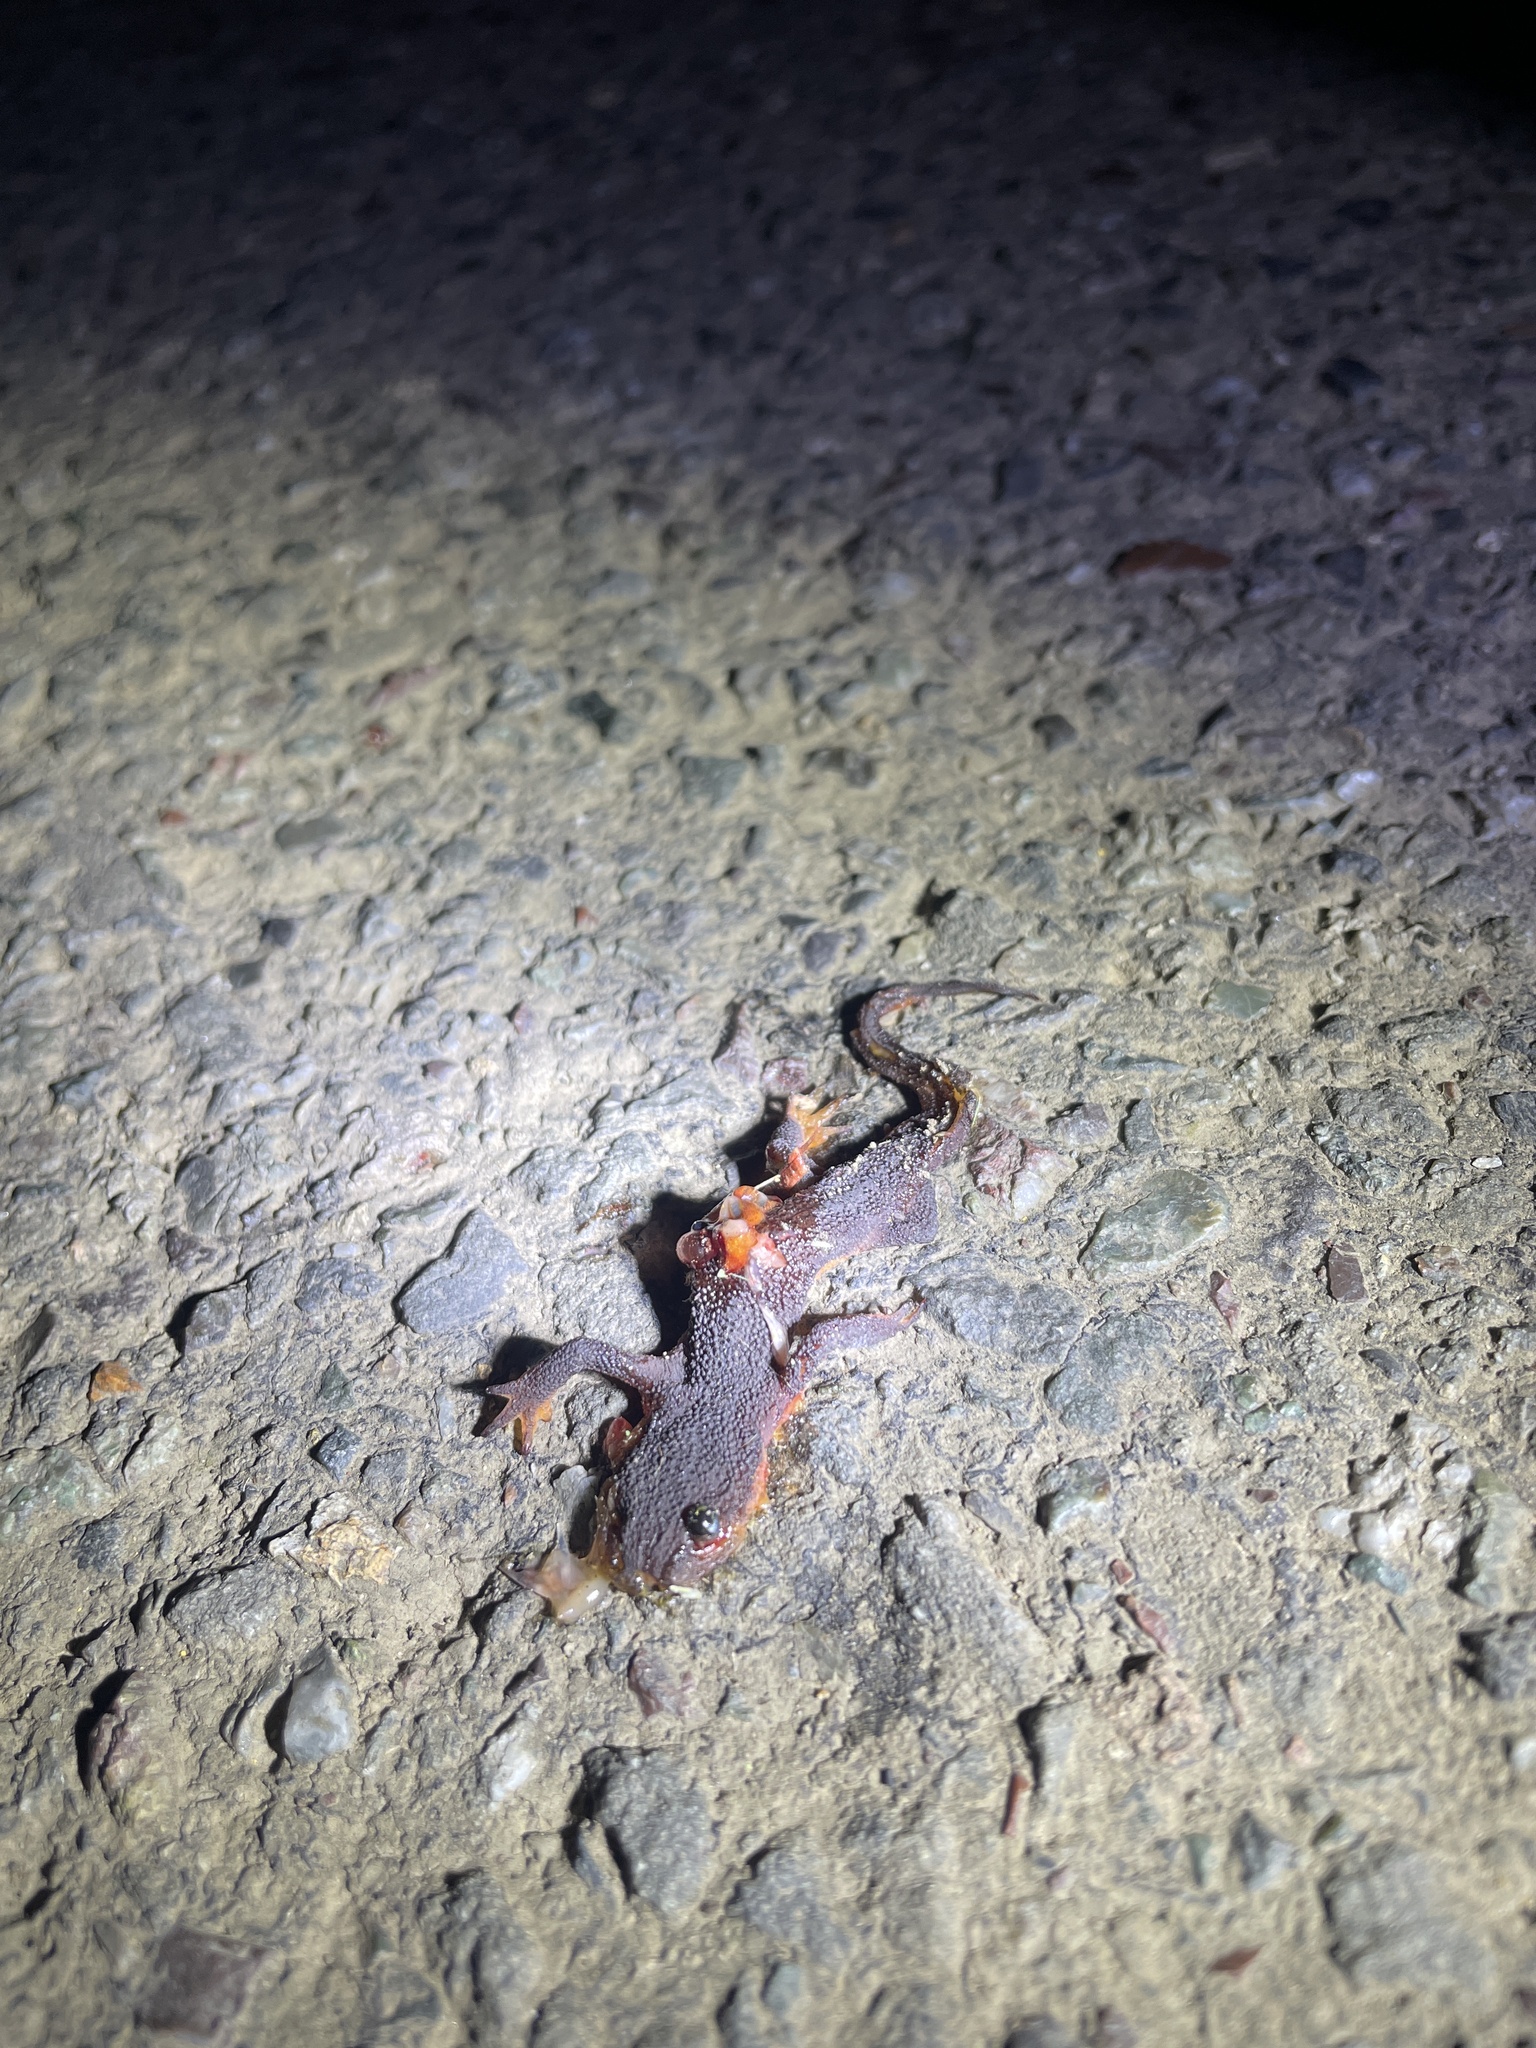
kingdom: Animalia
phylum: Chordata
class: Amphibia
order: Caudata
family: Salamandridae
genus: Taricha
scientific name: Taricha
